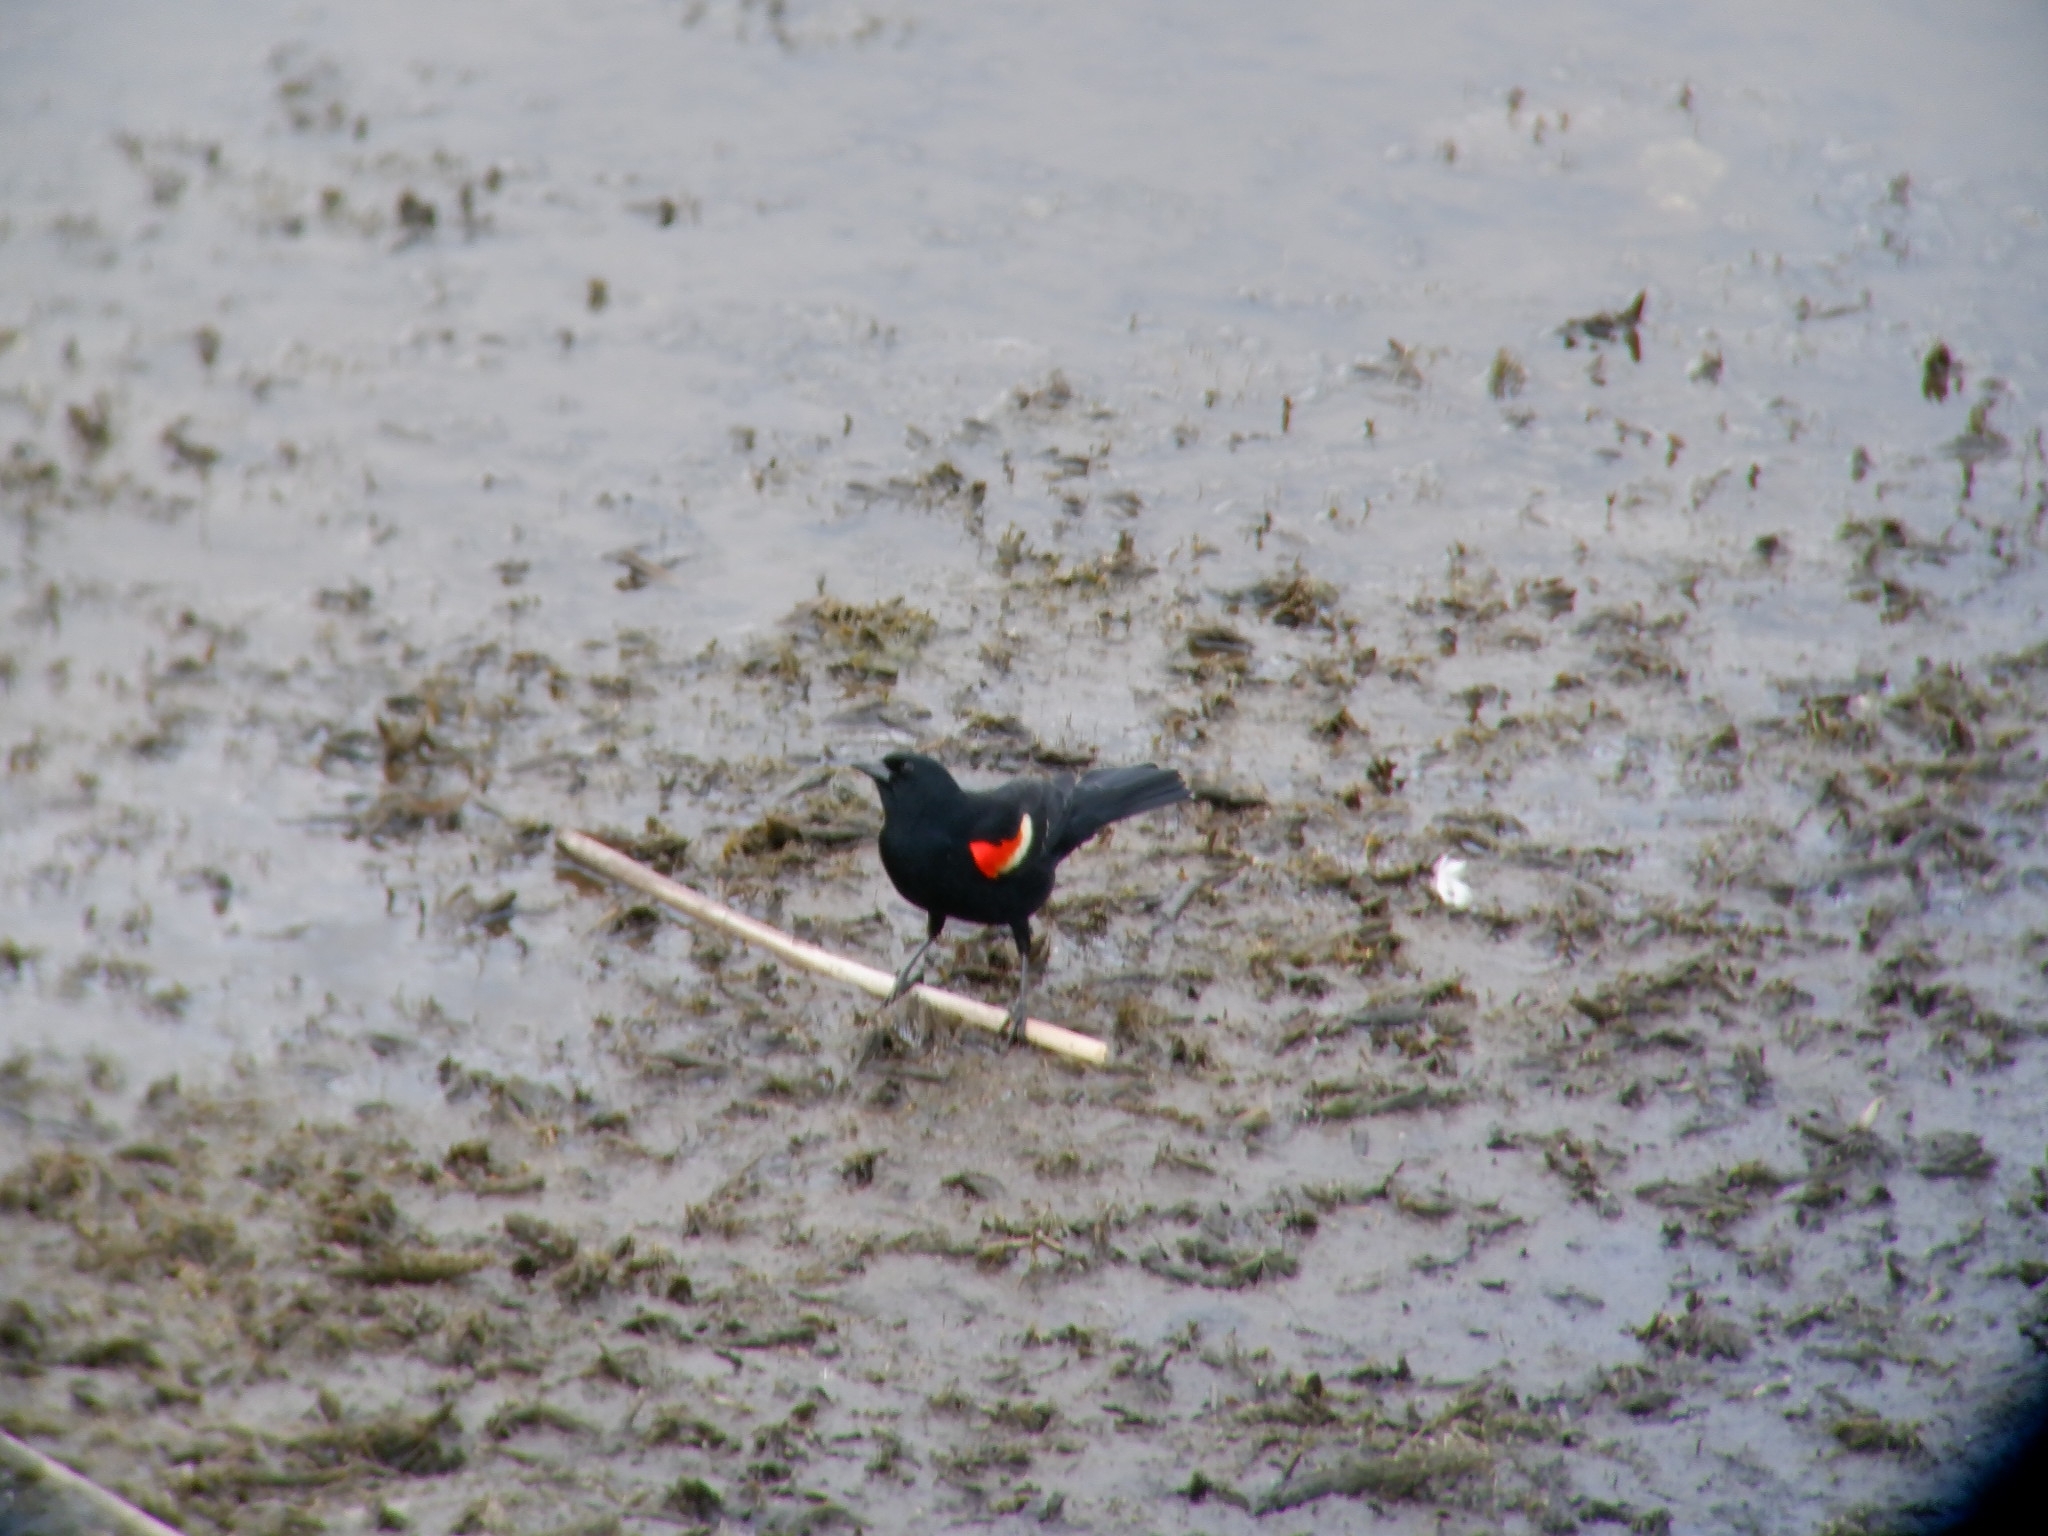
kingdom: Animalia
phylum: Chordata
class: Aves
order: Passeriformes
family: Icteridae
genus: Agelaius
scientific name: Agelaius phoeniceus
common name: Red-winged blackbird
